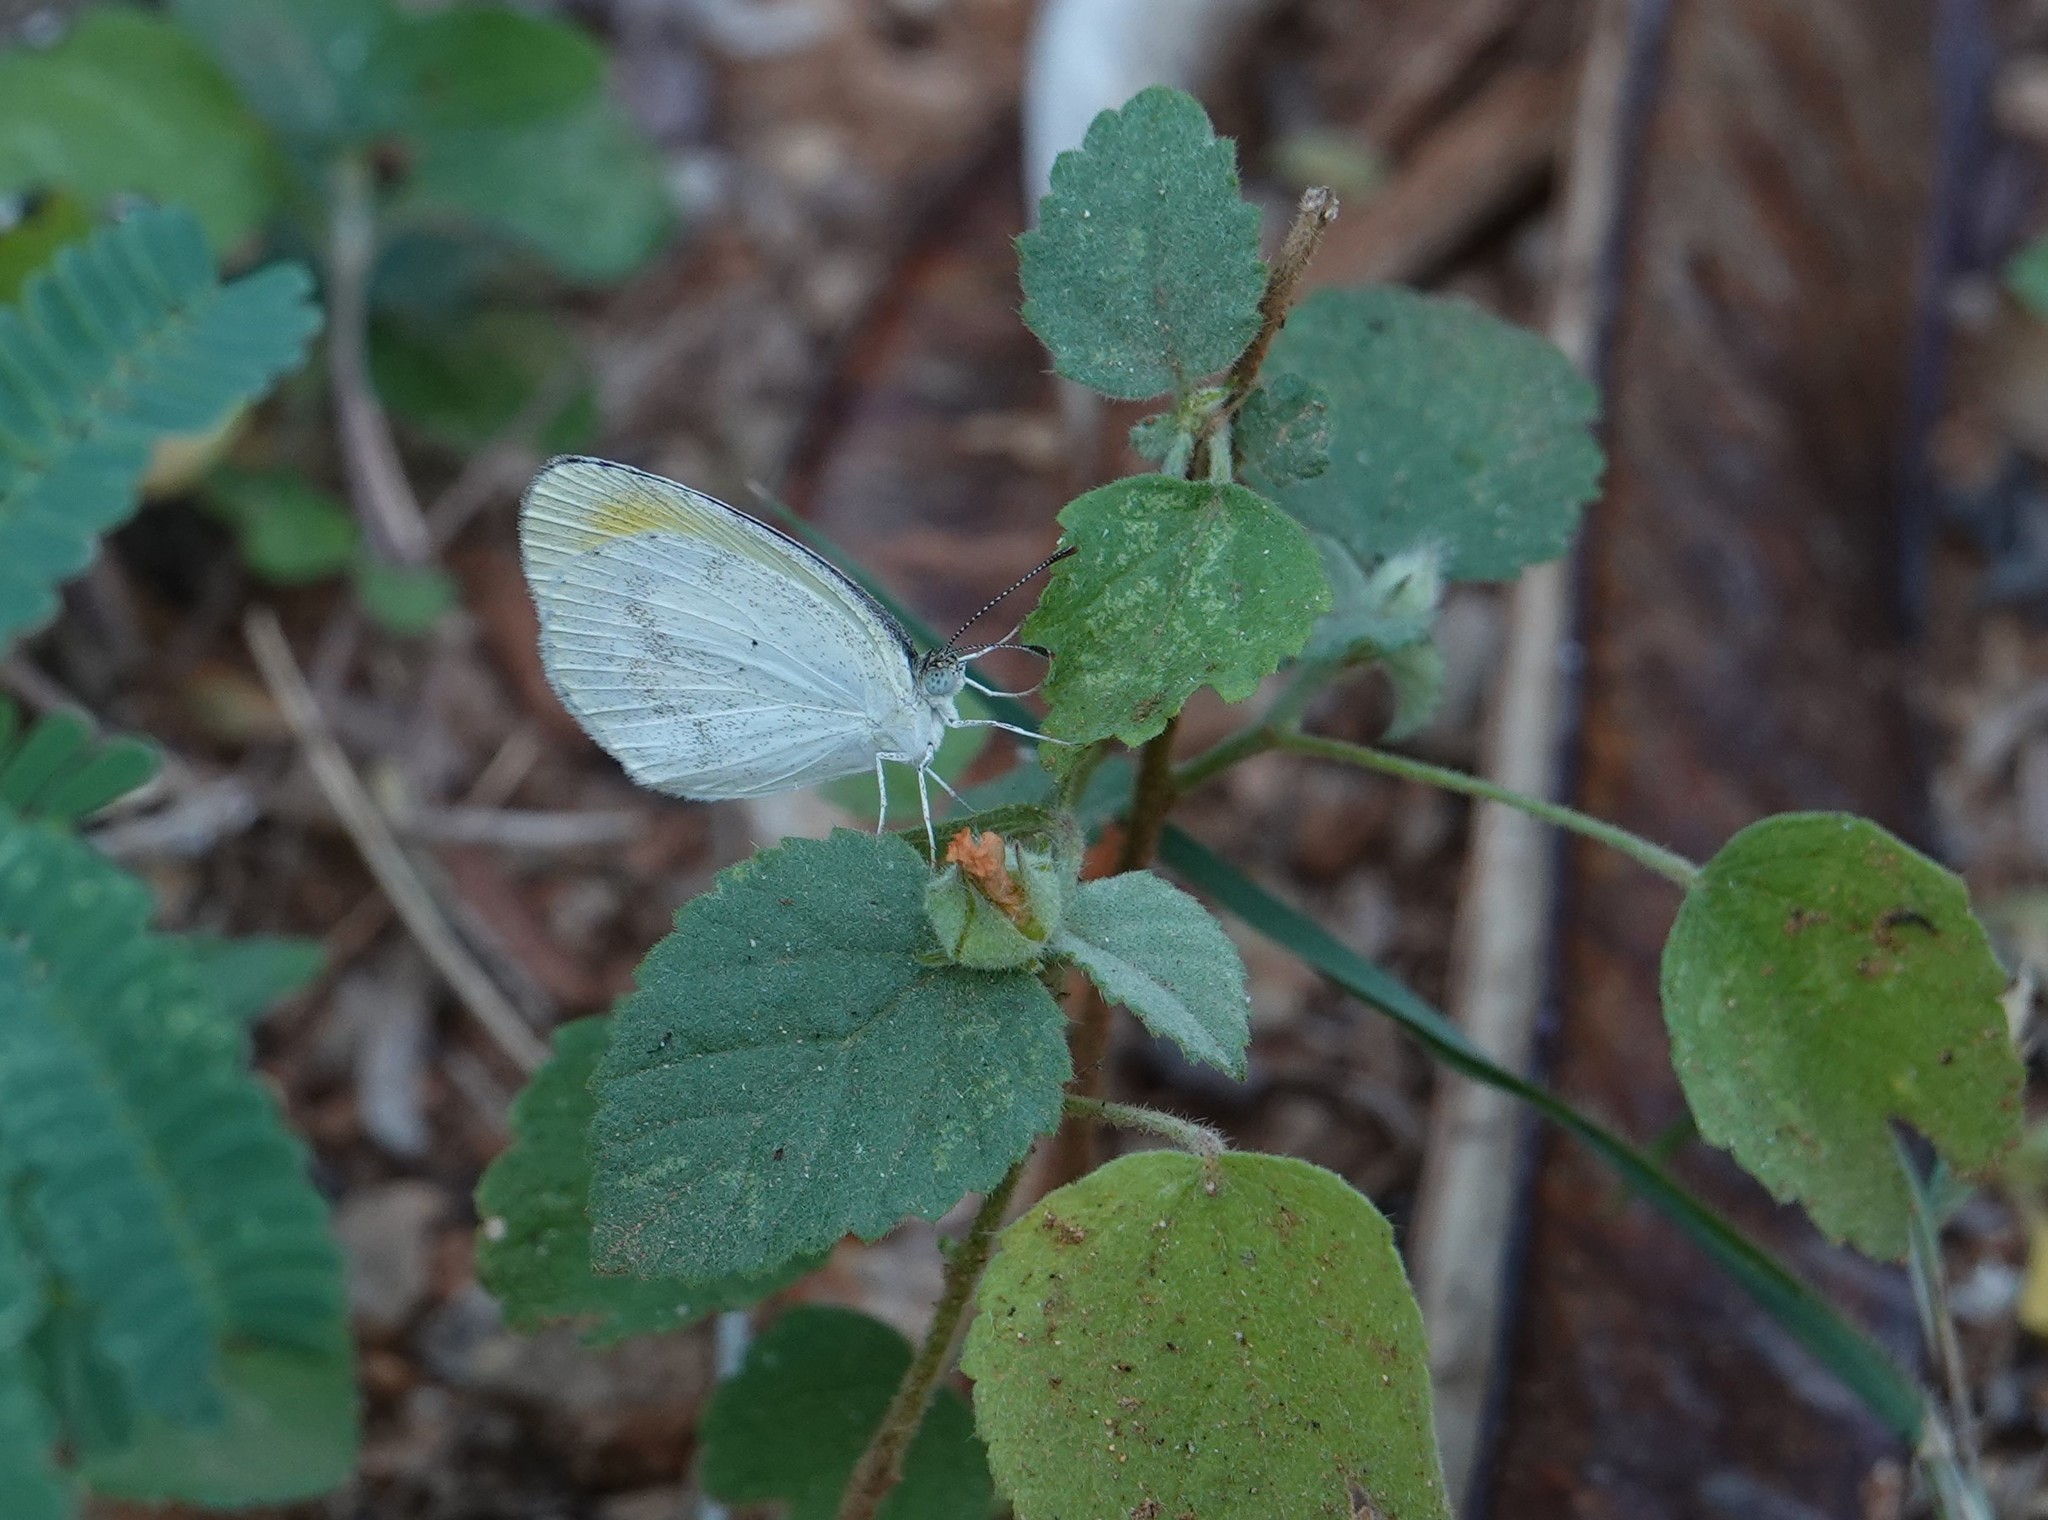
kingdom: Animalia
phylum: Arthropoda
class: Insecta
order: Lepidoptera
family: Pieridae
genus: Eurema
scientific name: Eurema lucina
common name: Smudged yellow
